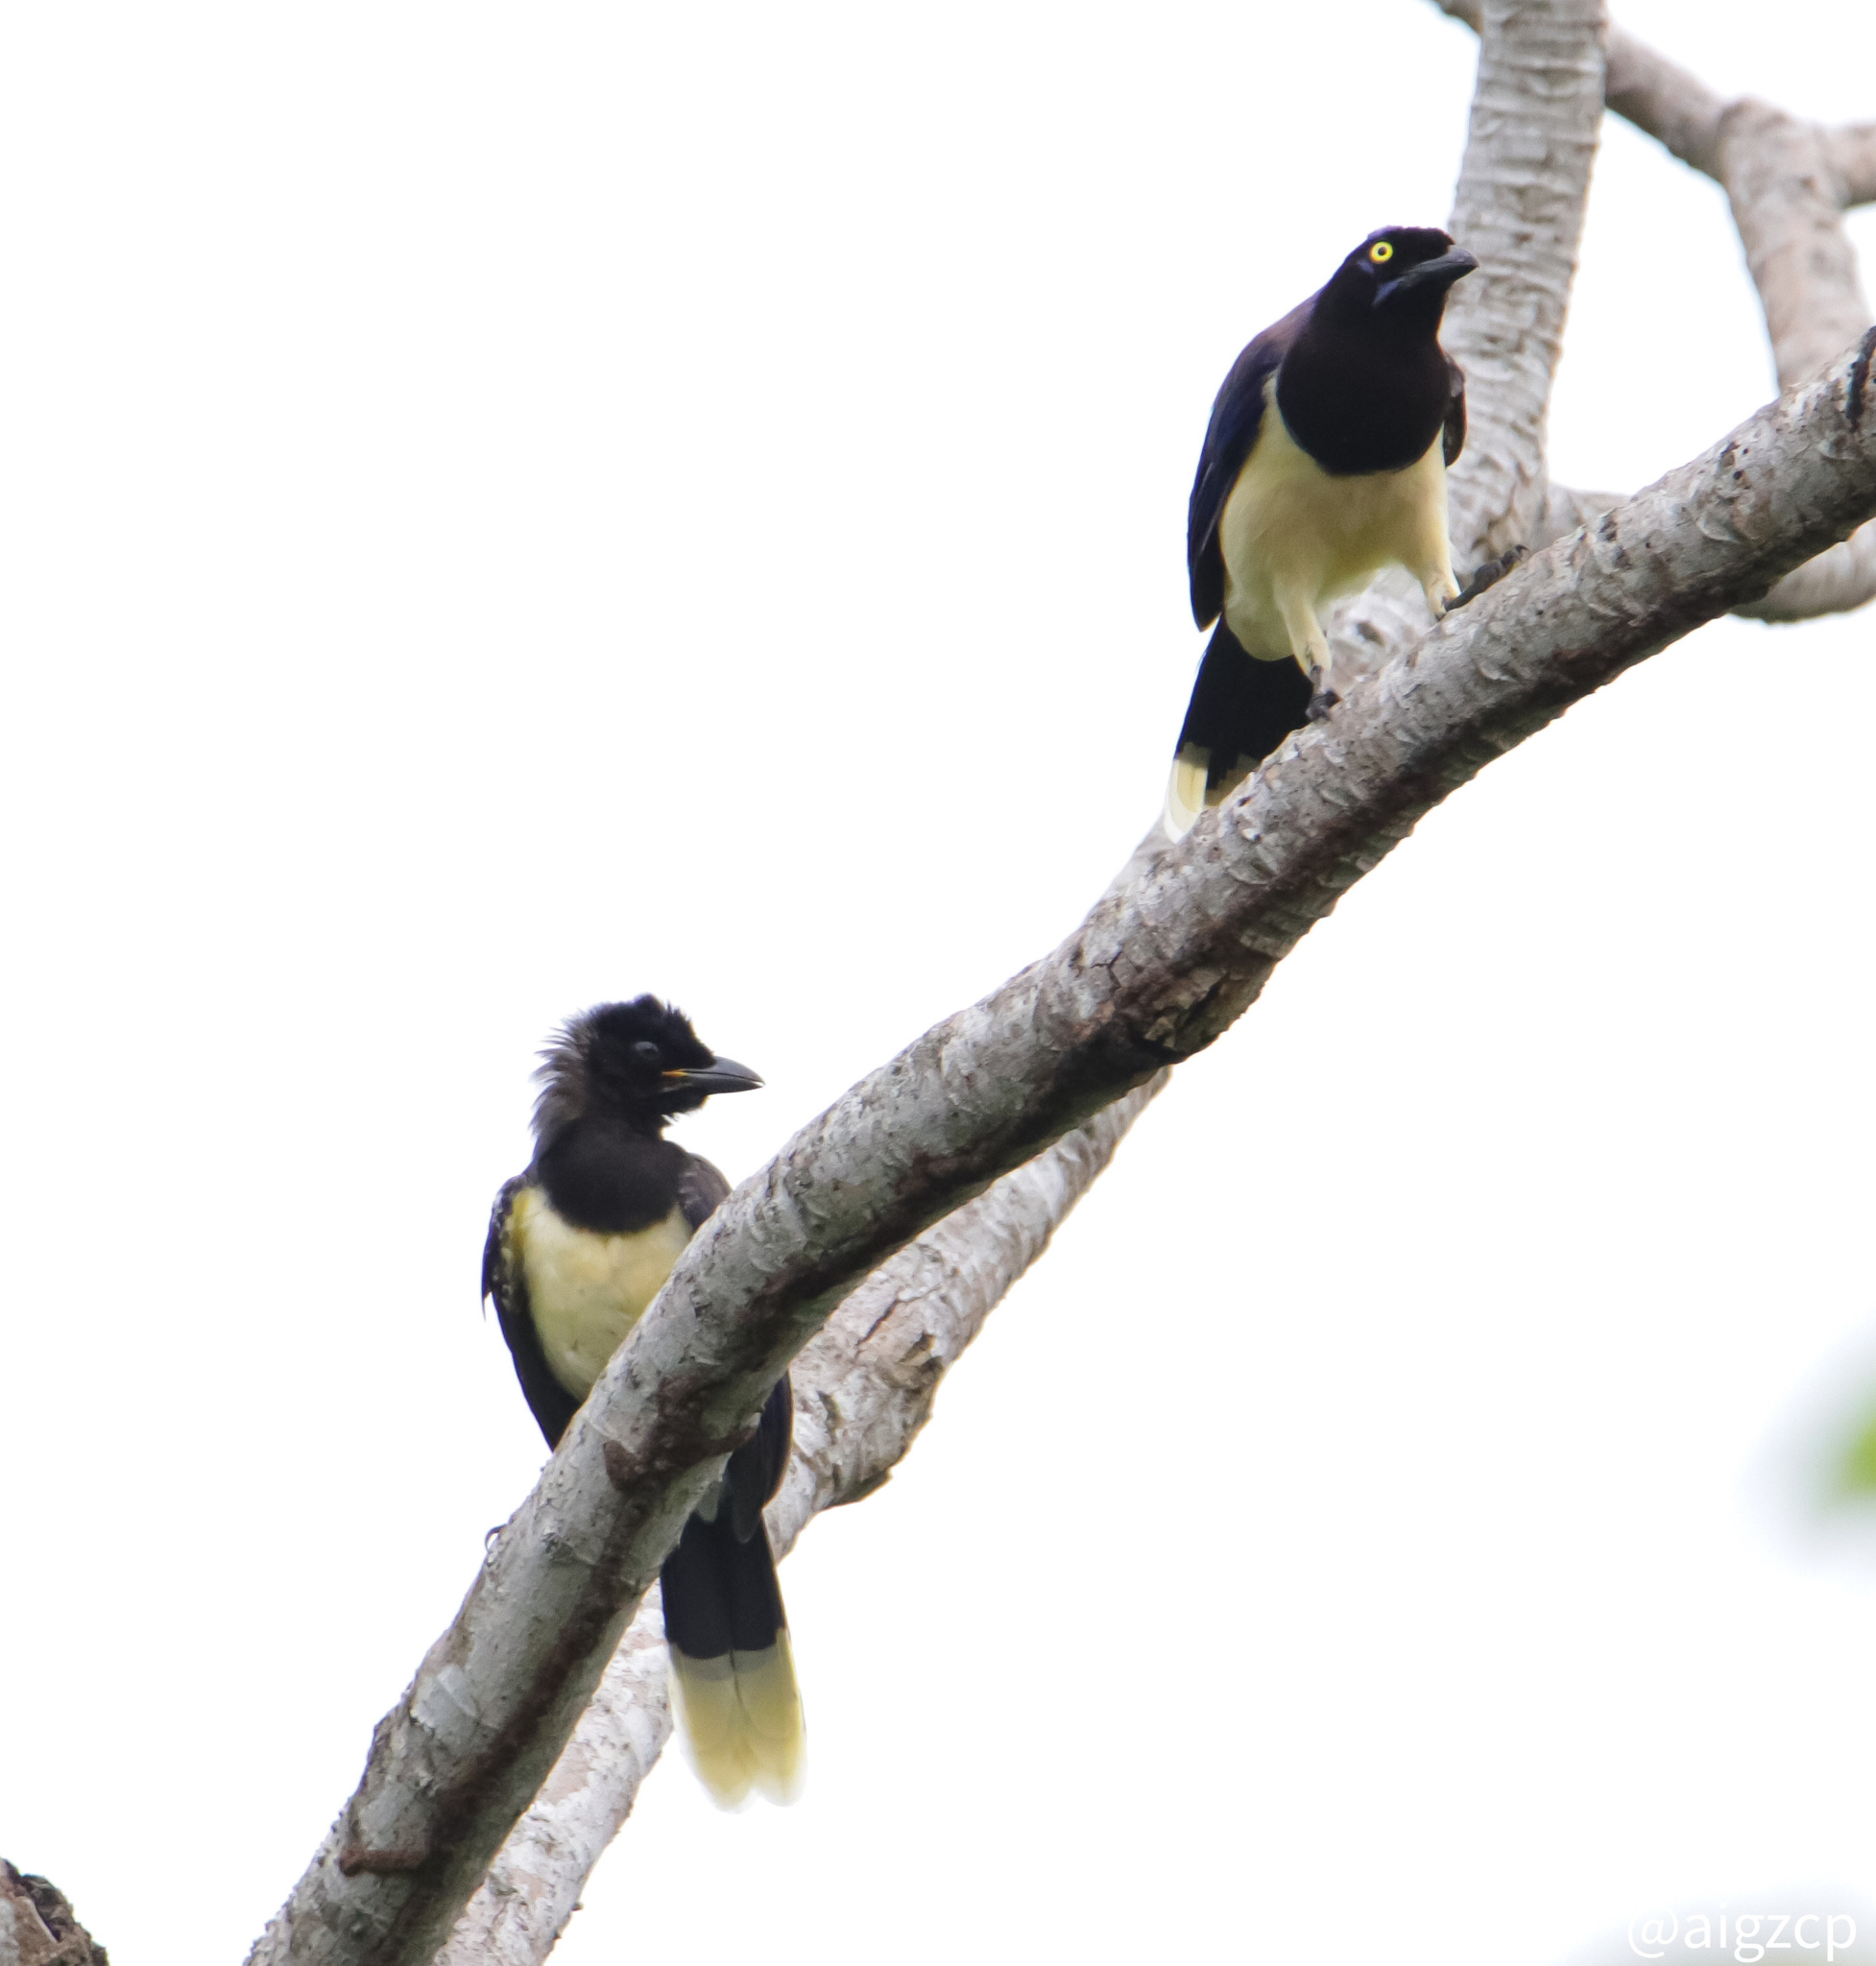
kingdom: Animalia
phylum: Chordata
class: Aves
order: Passeriformes
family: Corvidae
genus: Cyanocorax
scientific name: Cyanocorax affinis
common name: Black-chested jay
